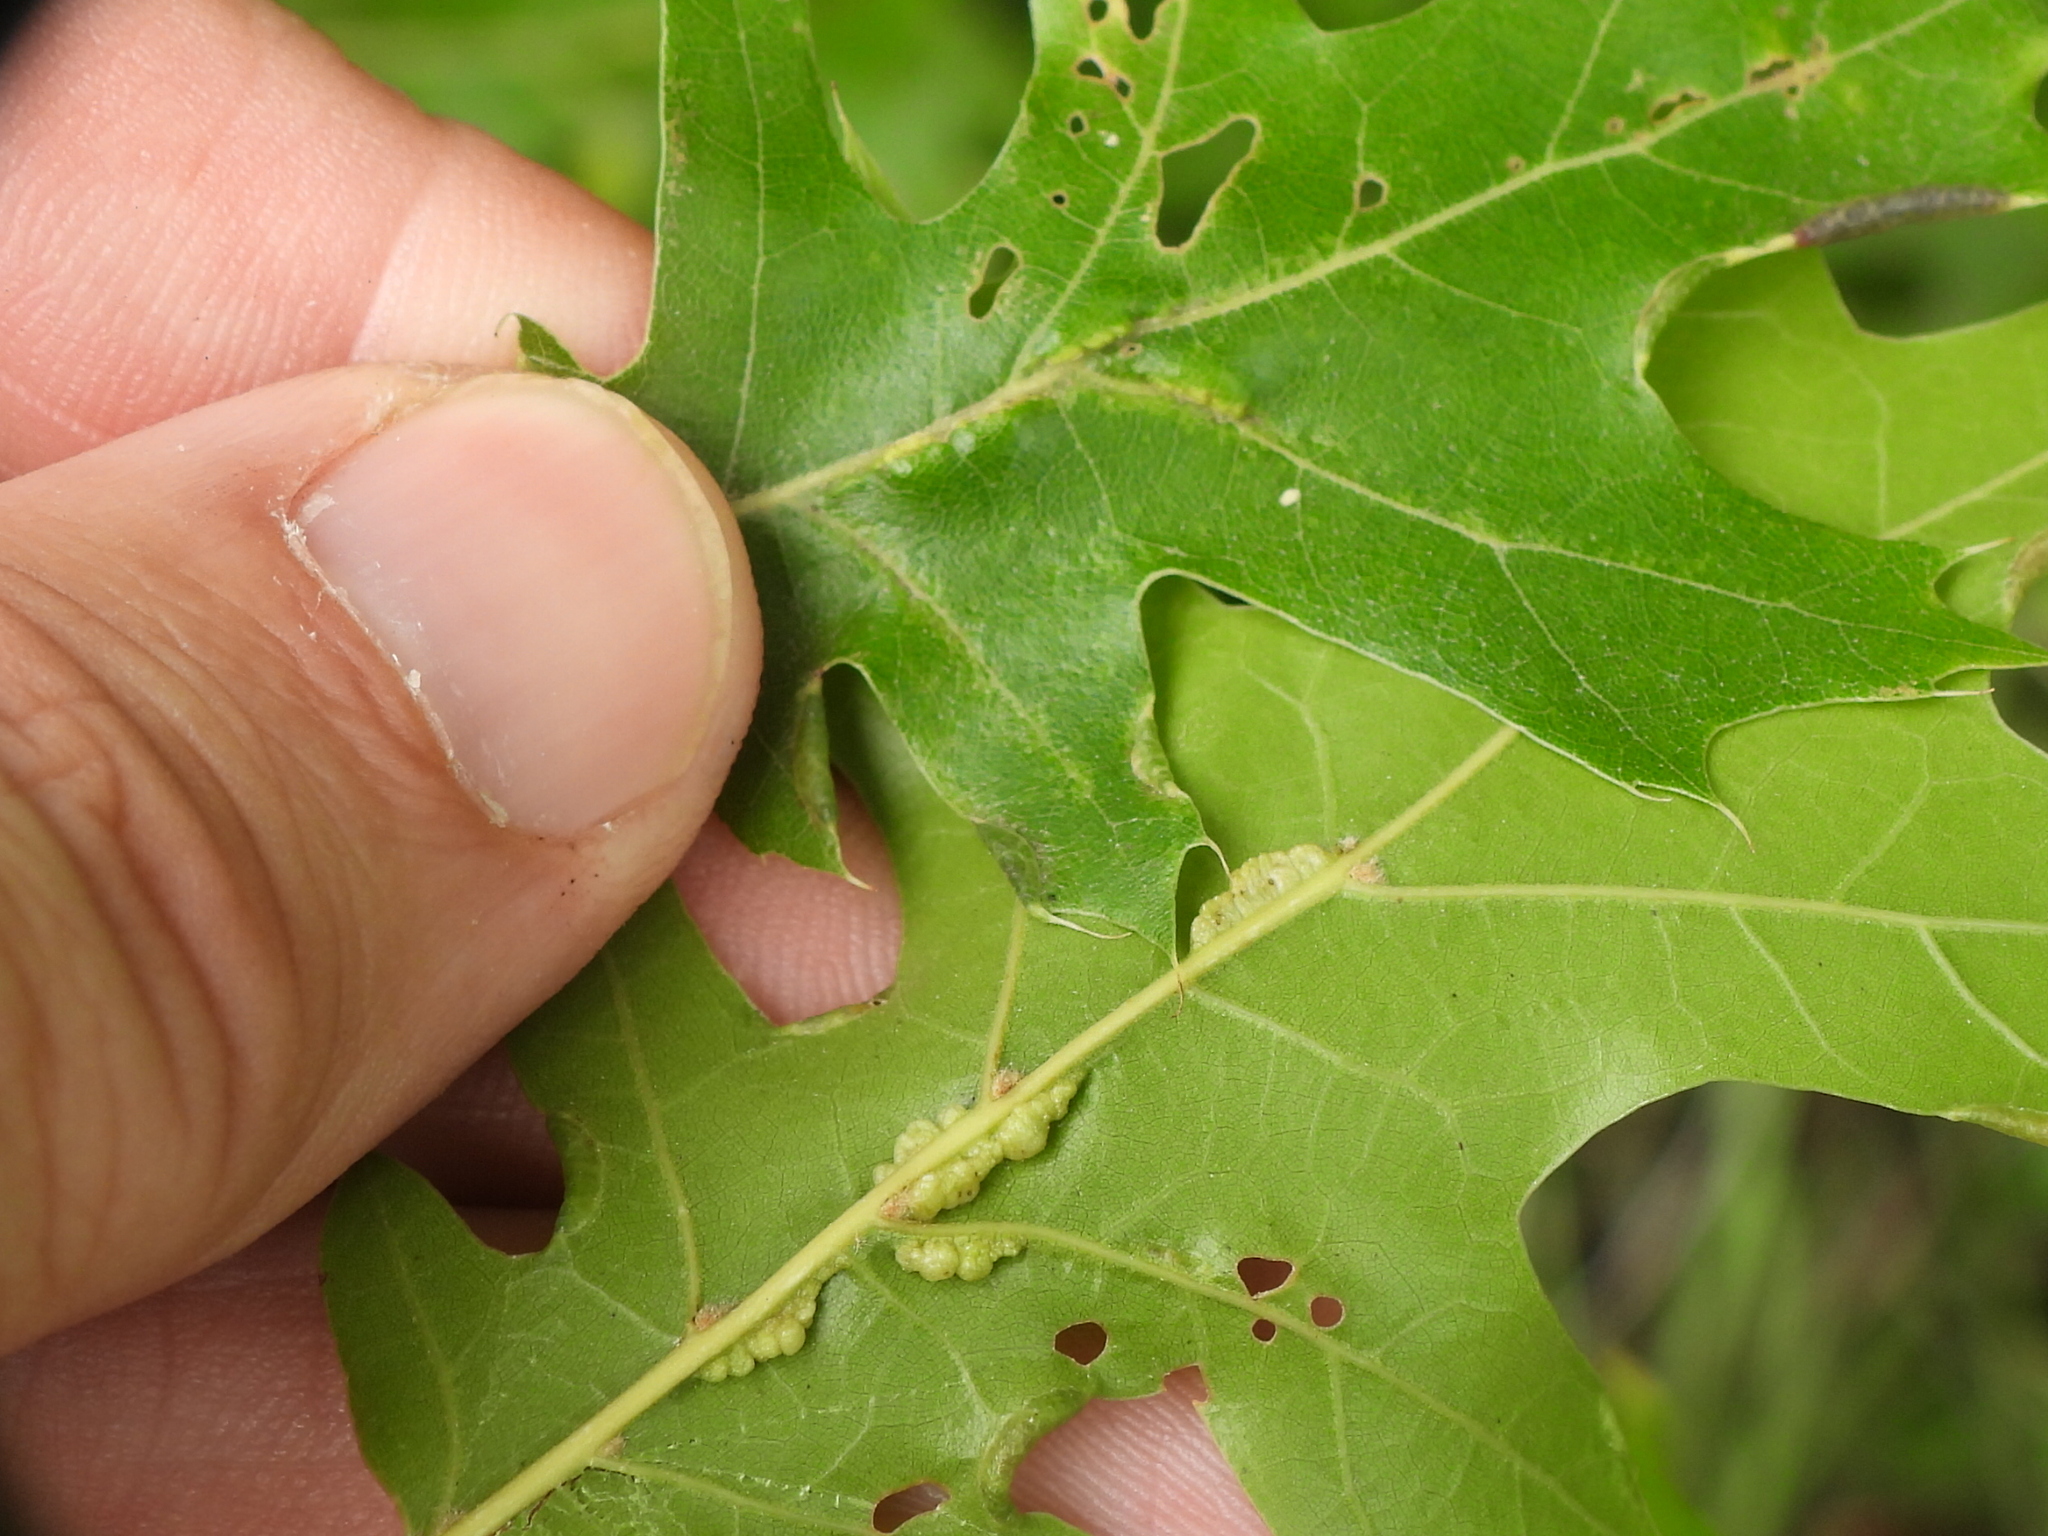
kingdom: Animalia
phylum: Arthropoda
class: Insecta
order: Diptera
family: Cecidomyiidae
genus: Macrodiplosis
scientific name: Macrodiplosis q-orucum
